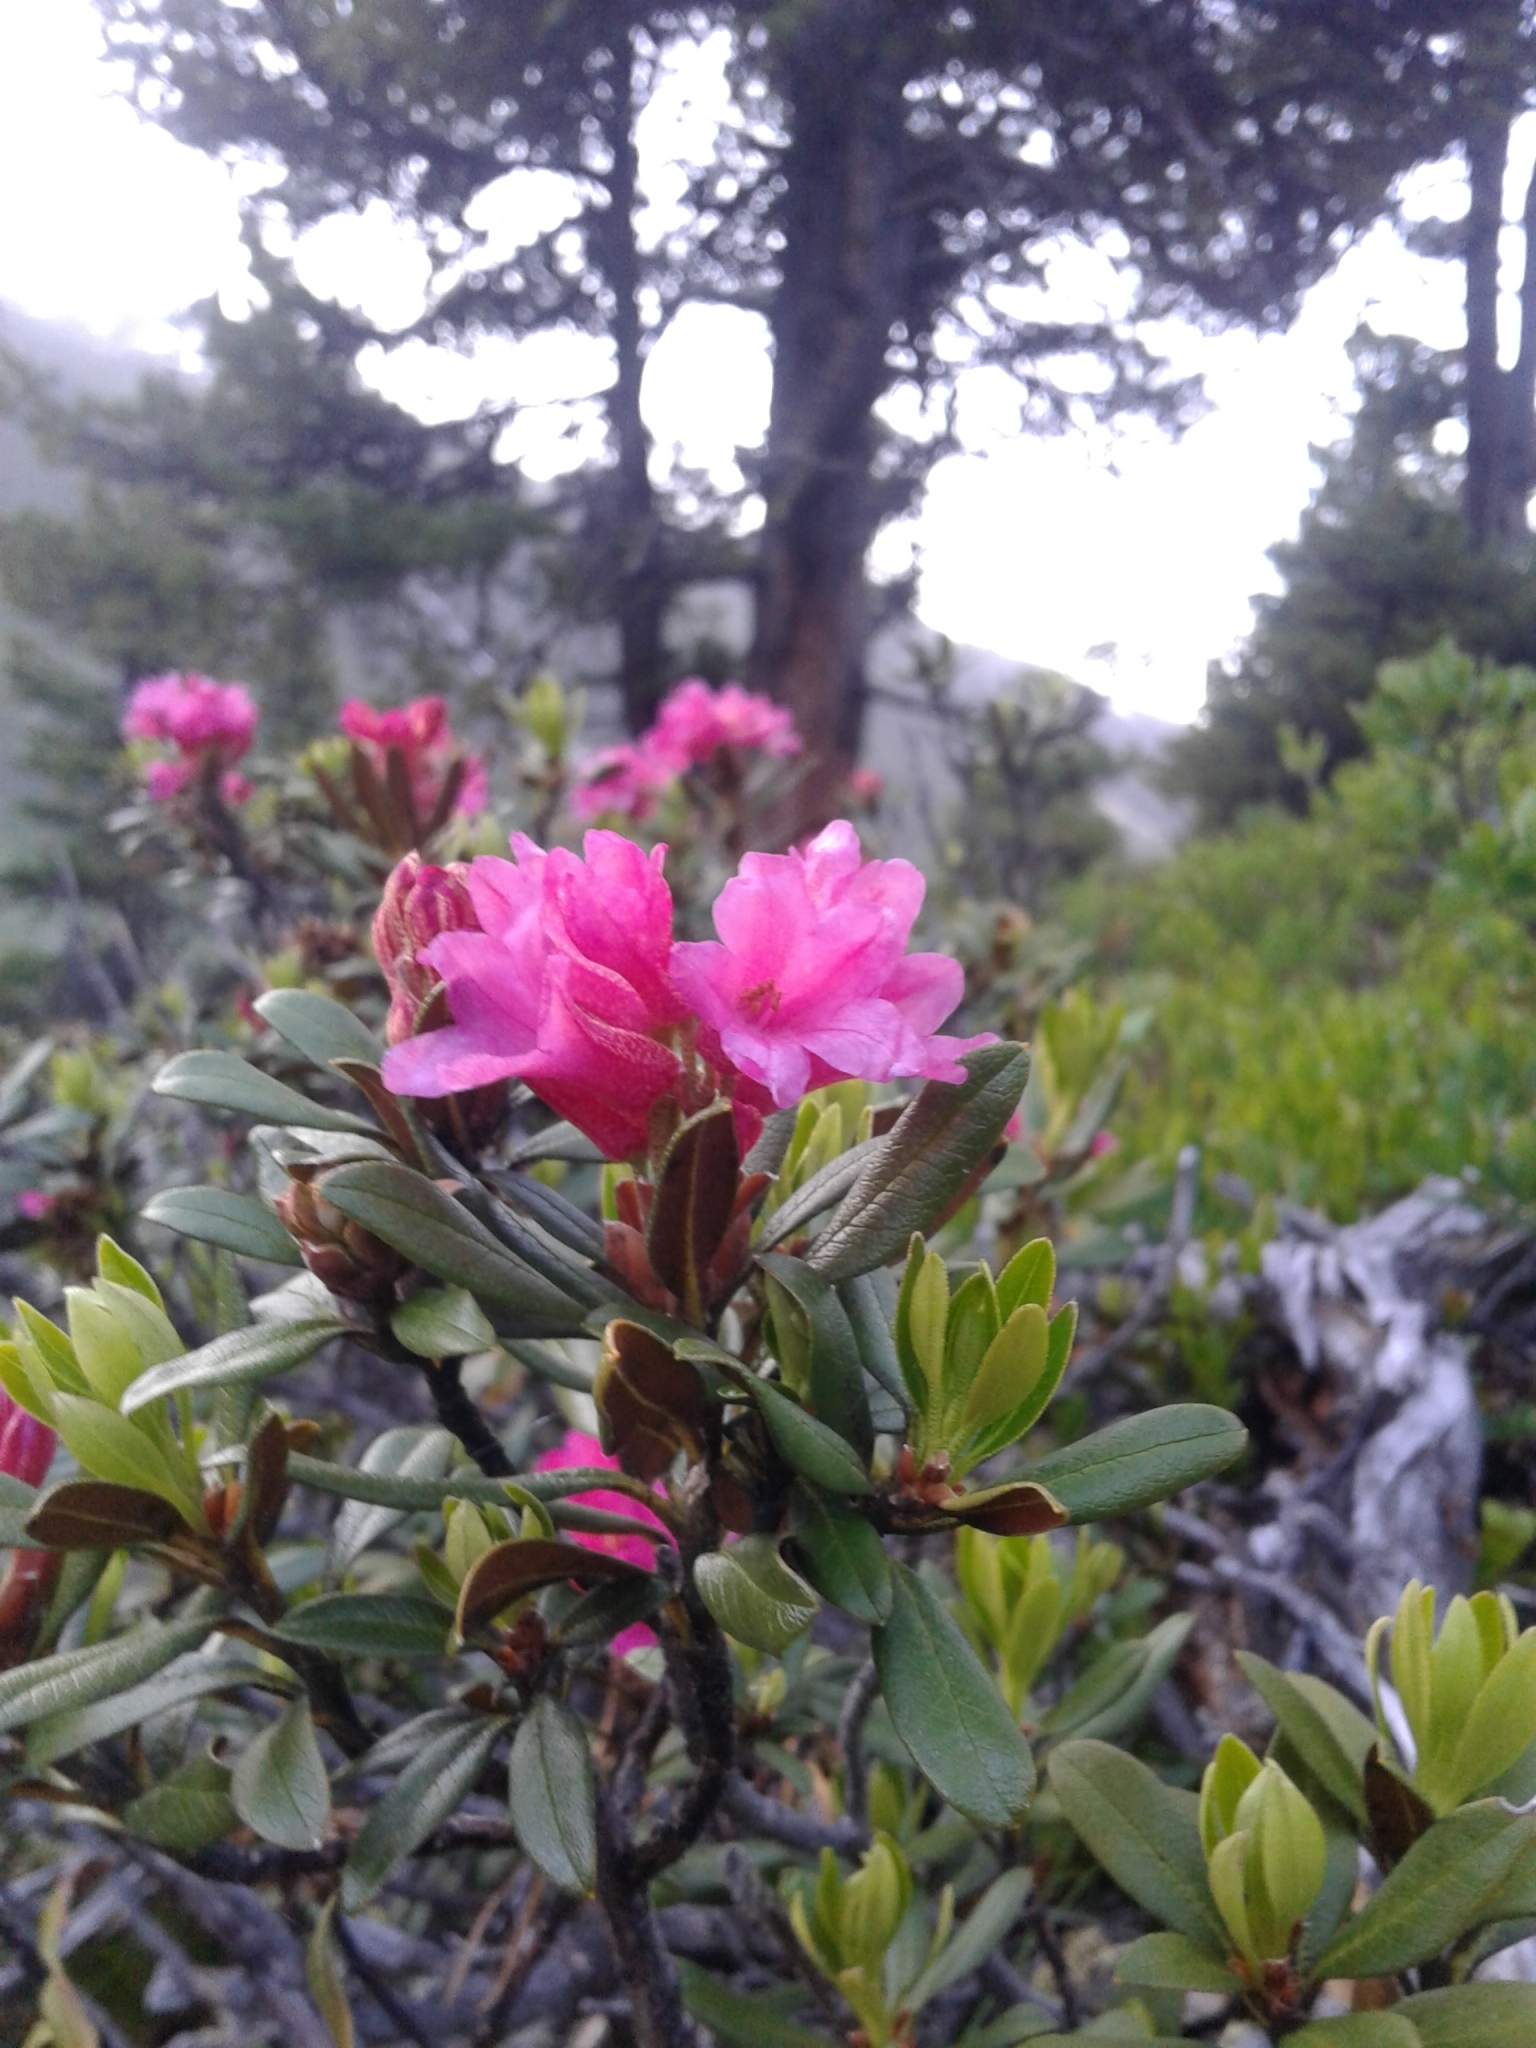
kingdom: Plantae
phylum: Tracheophyta
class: Magnoliopsida
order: Ericales
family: Ericaceae
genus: Rhododendron
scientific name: Rhododendron ferrugineum
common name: Alpenrose
